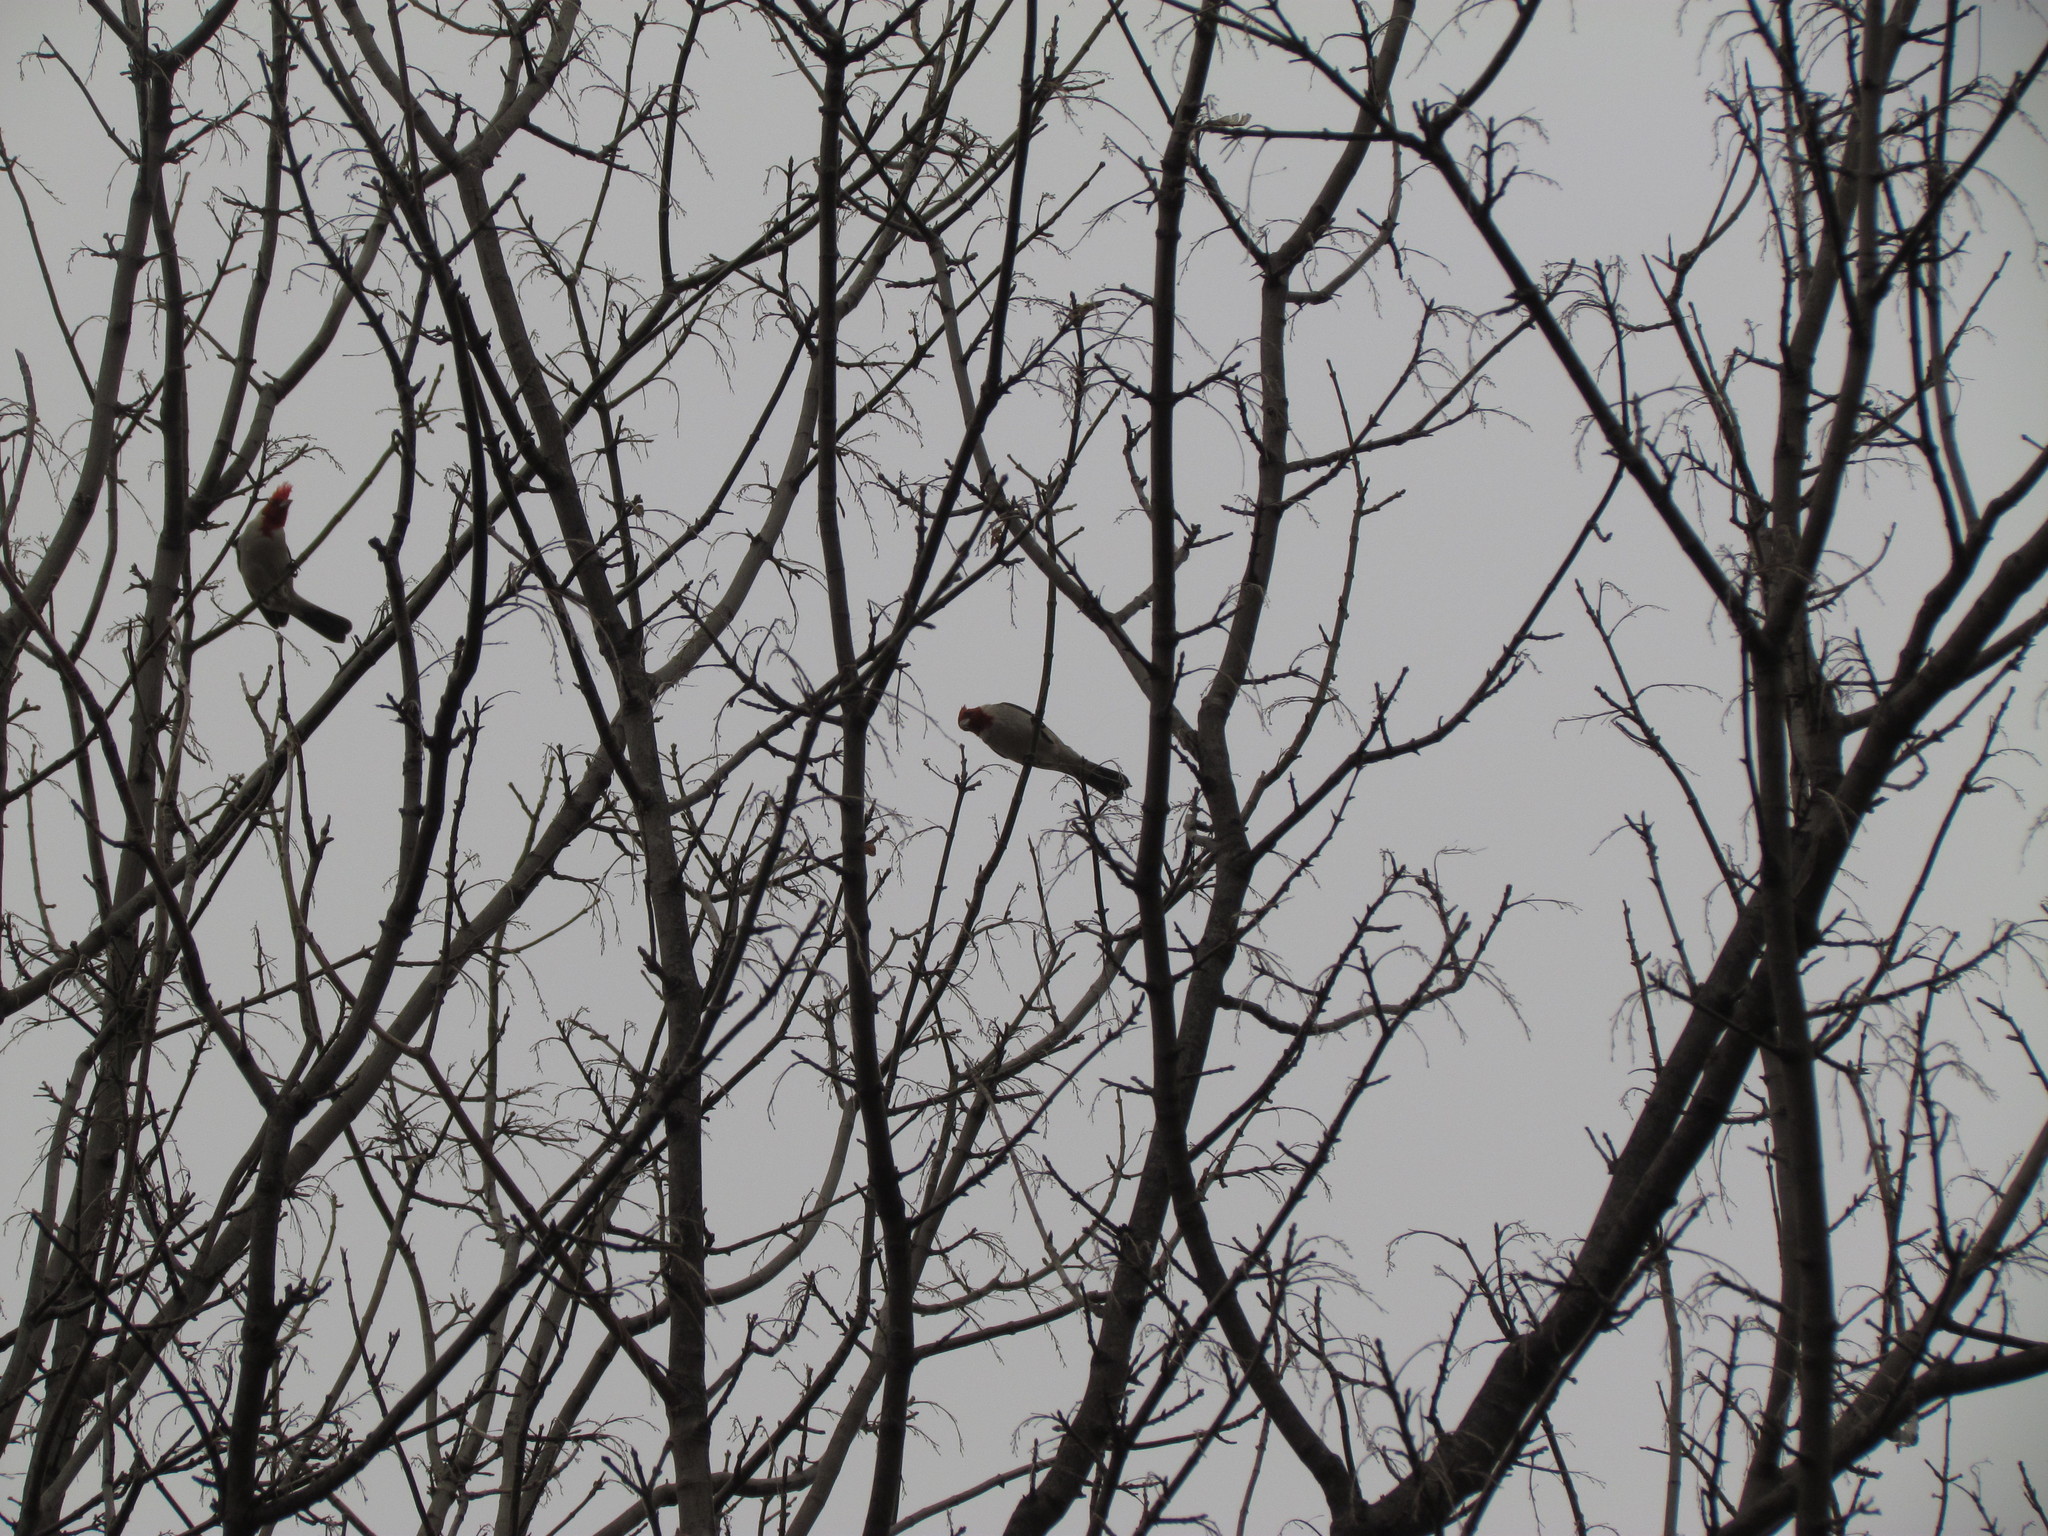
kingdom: Animalia
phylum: Chordata
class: Aves
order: Passeriformes
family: Thraupidae
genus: Paroaria
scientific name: Paroaria coronata
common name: Red-crested cardinal
